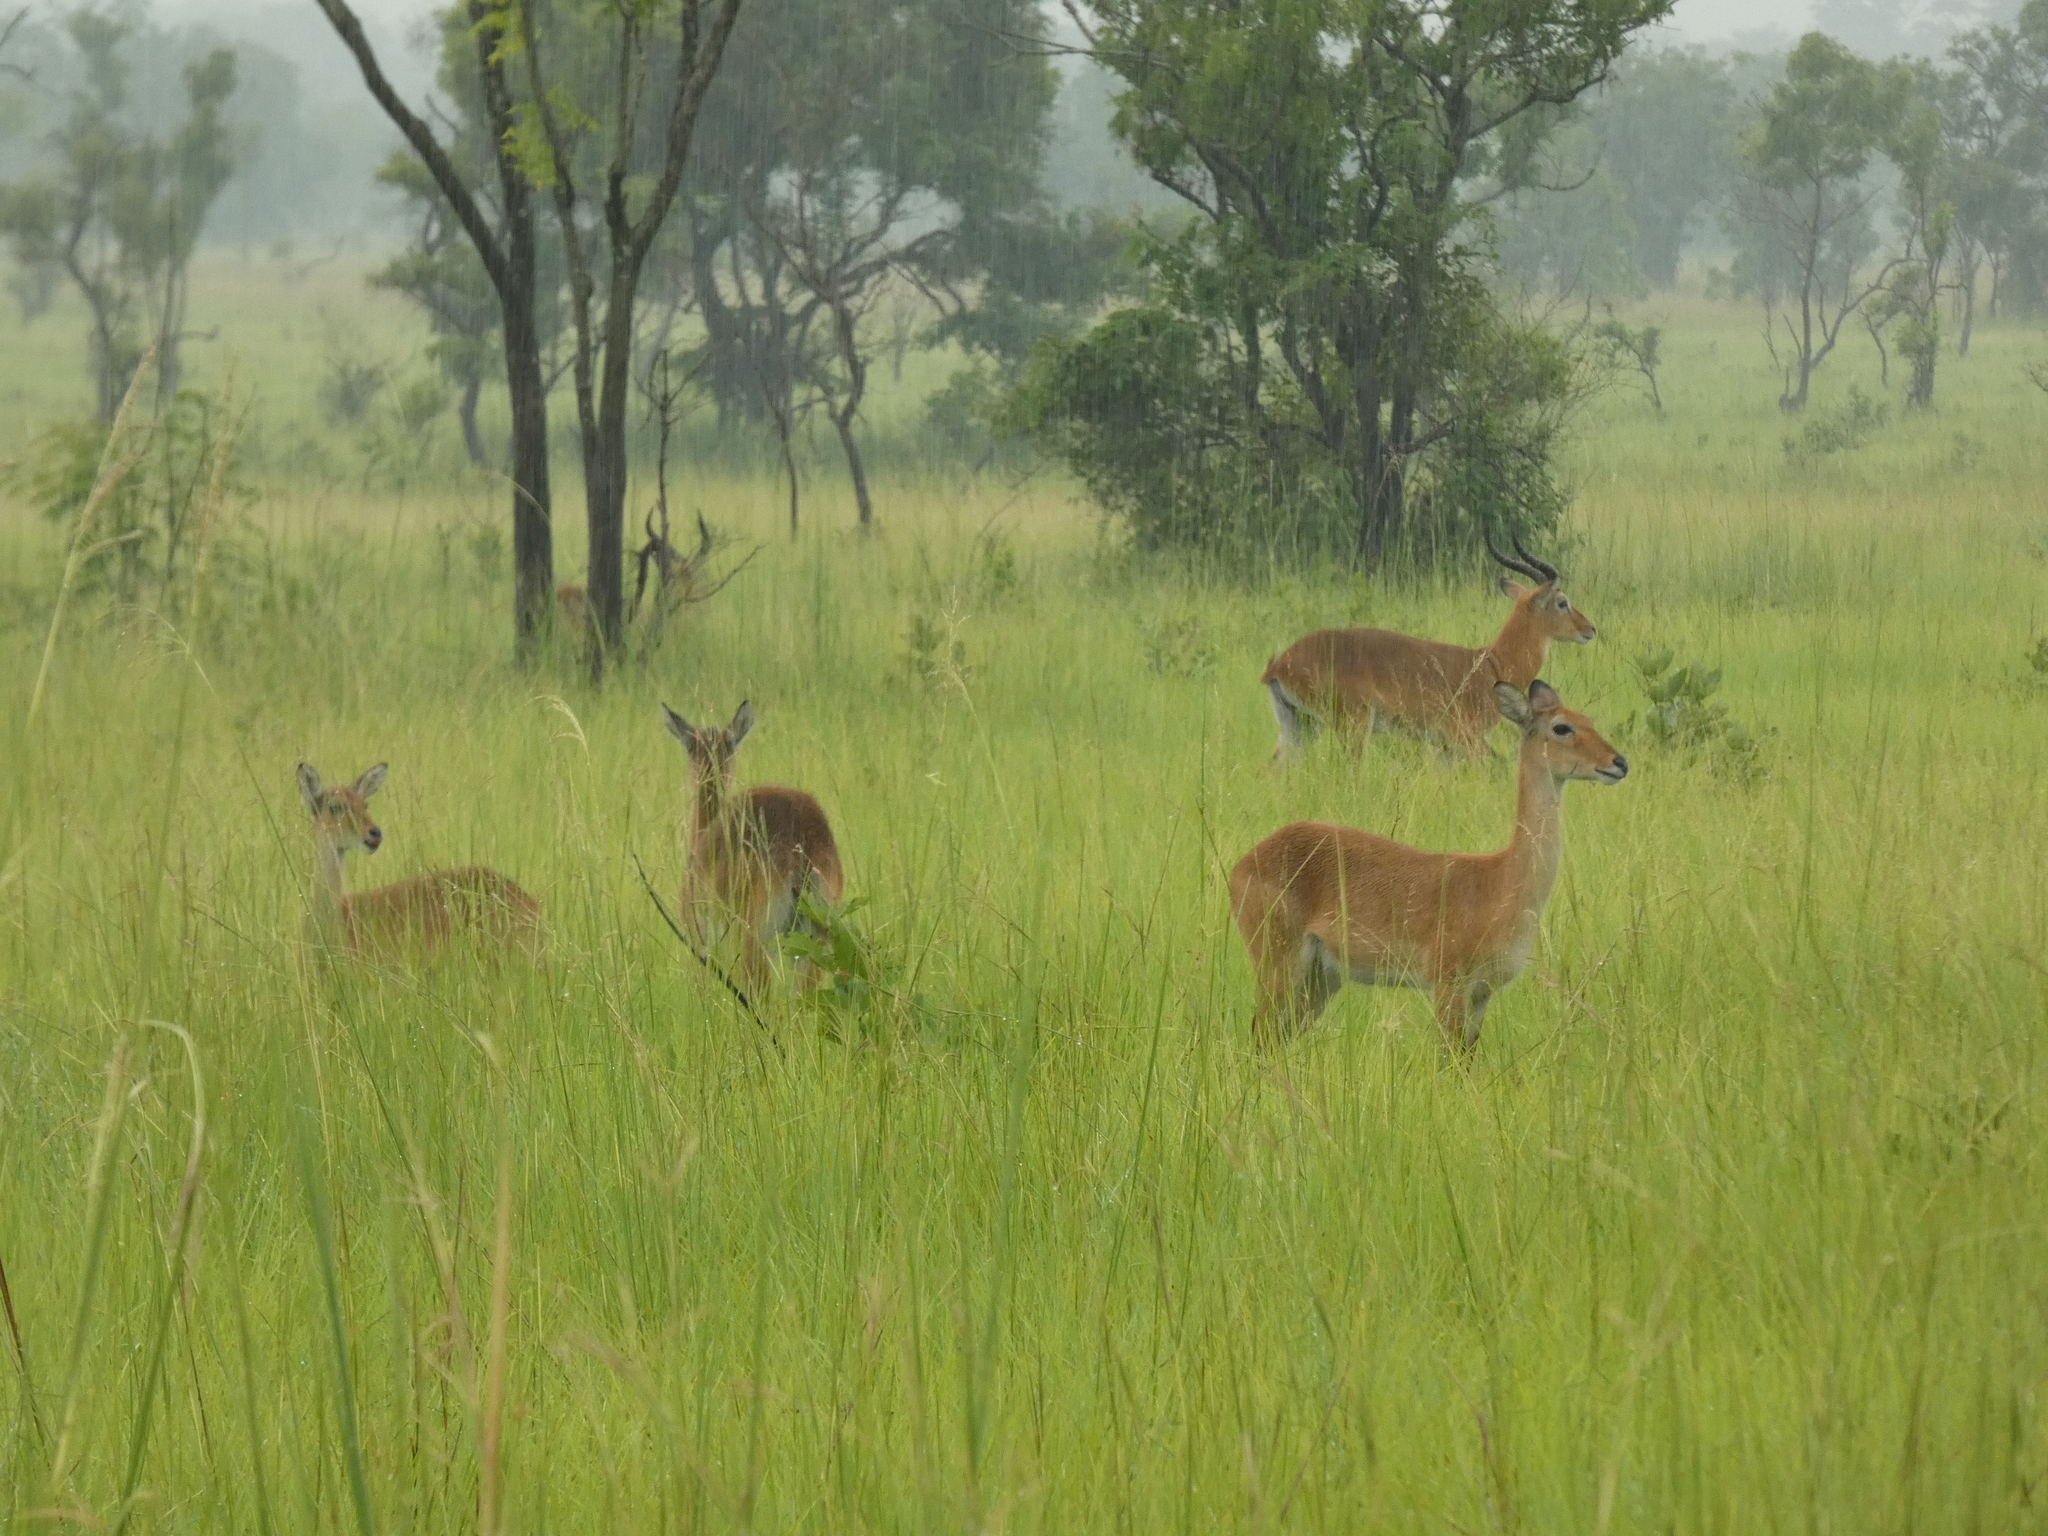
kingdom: Animalia
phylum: Chordata
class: Mammalia
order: Artiodactyla
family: Bovidae
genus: Kobus
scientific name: Kobus kob
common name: Kob
